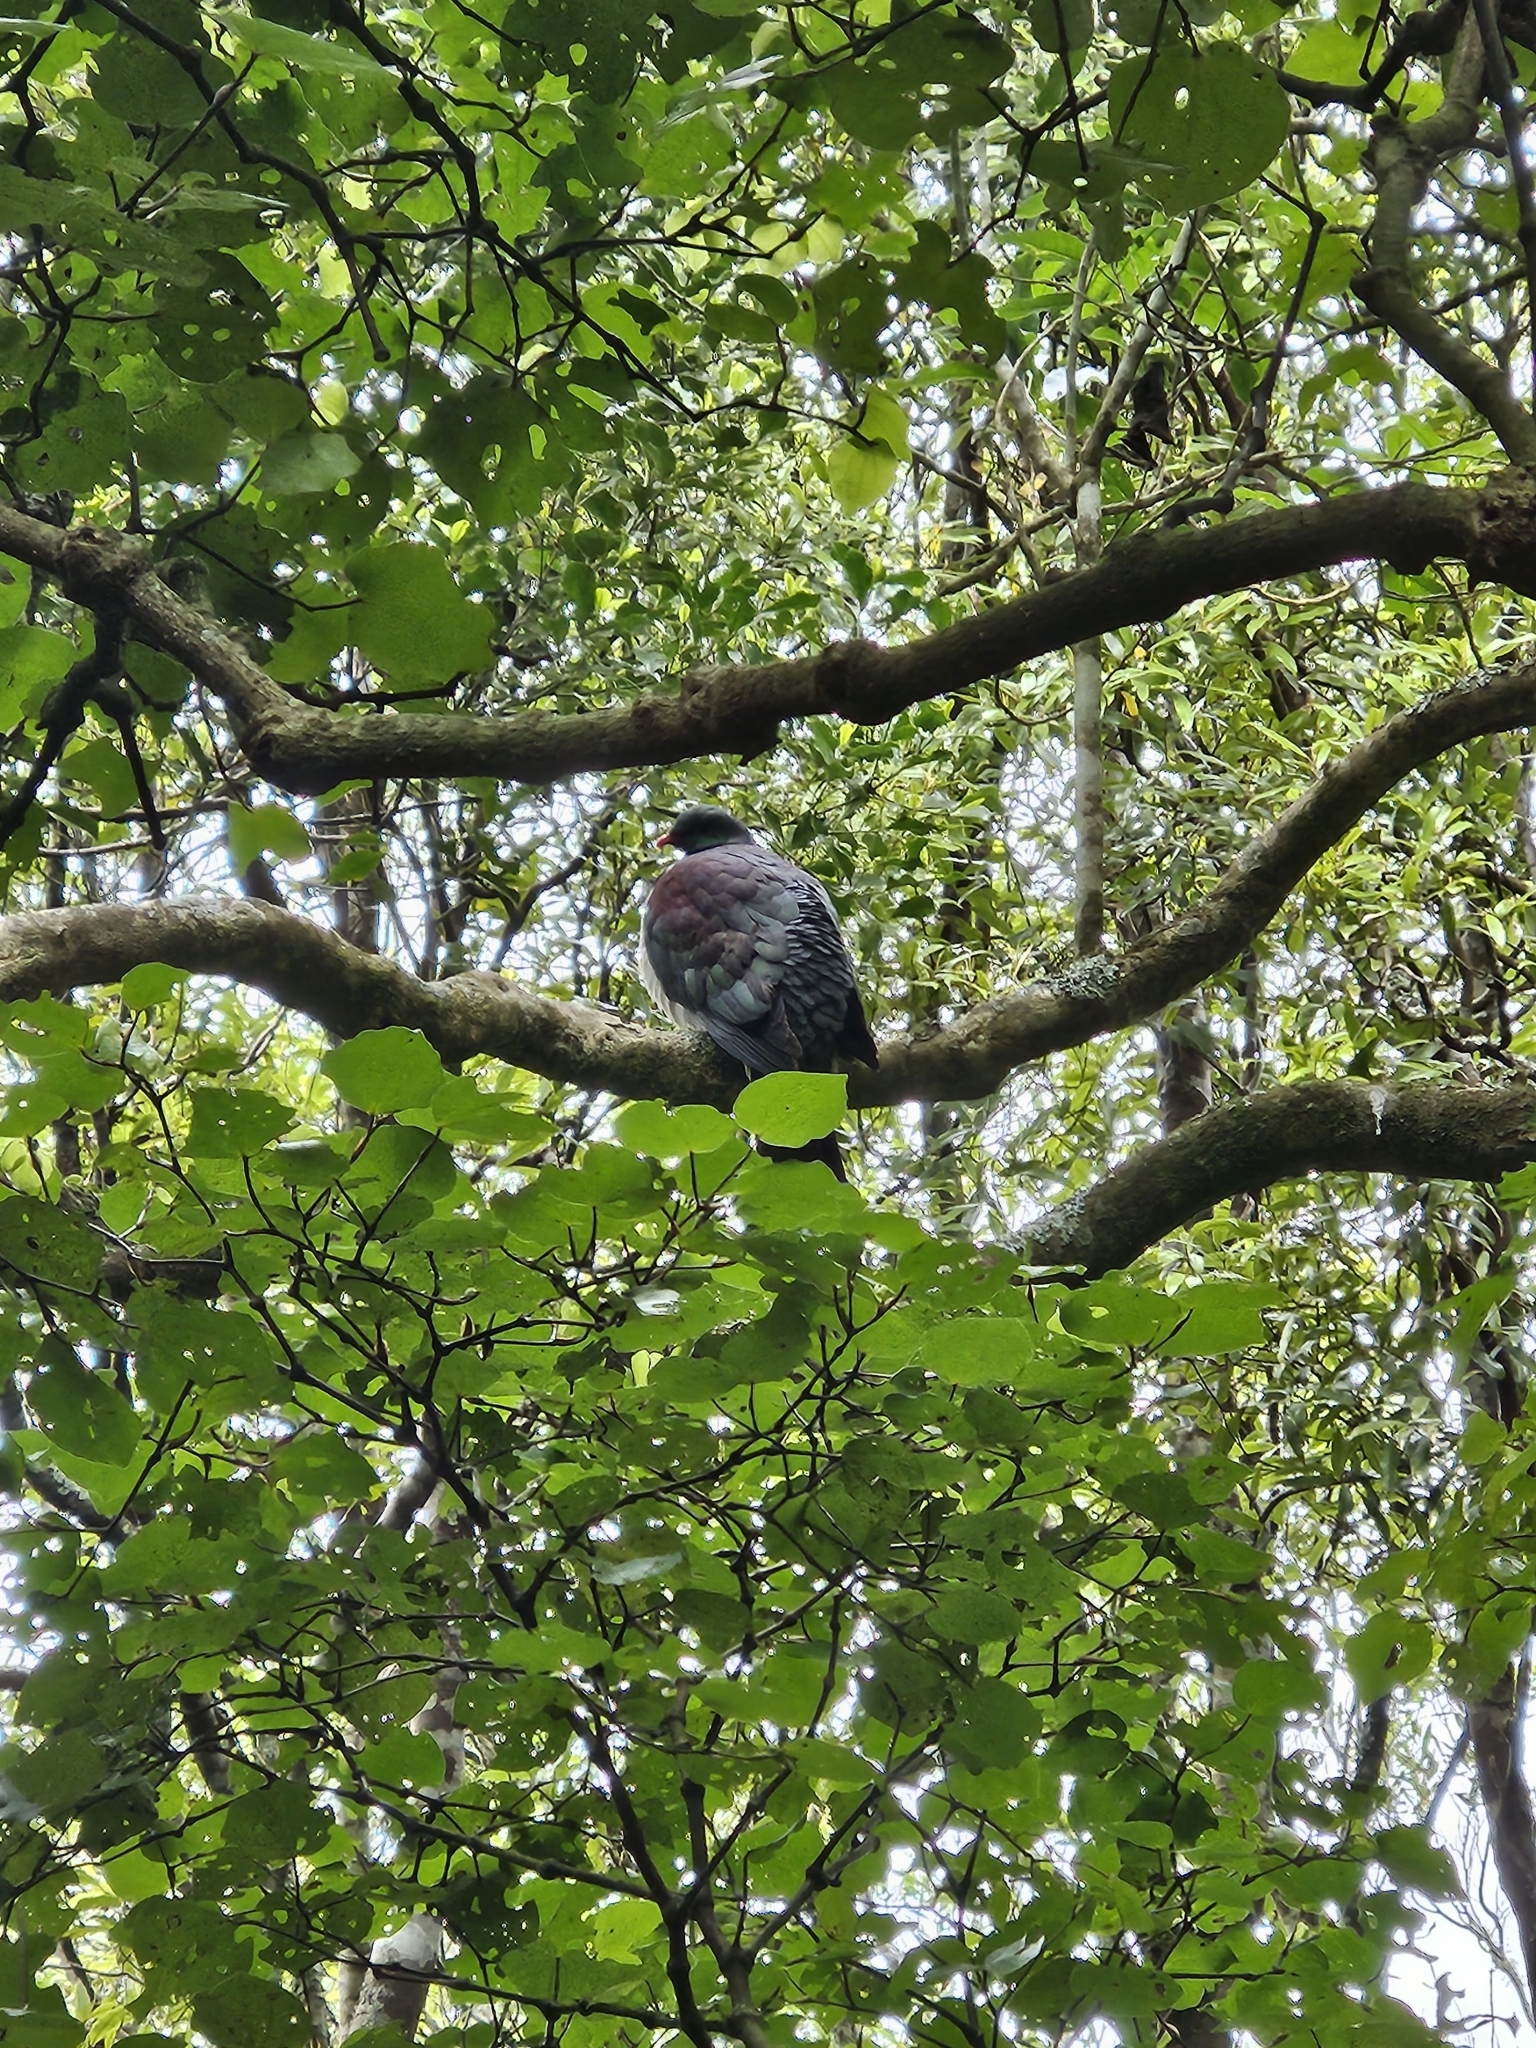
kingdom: Animalia
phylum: Chordata
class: Aves
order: Columbiformes
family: Columbidae
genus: Hemiphaga
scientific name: Hemiphaga novaeseelandiae
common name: New zealand pigeon
